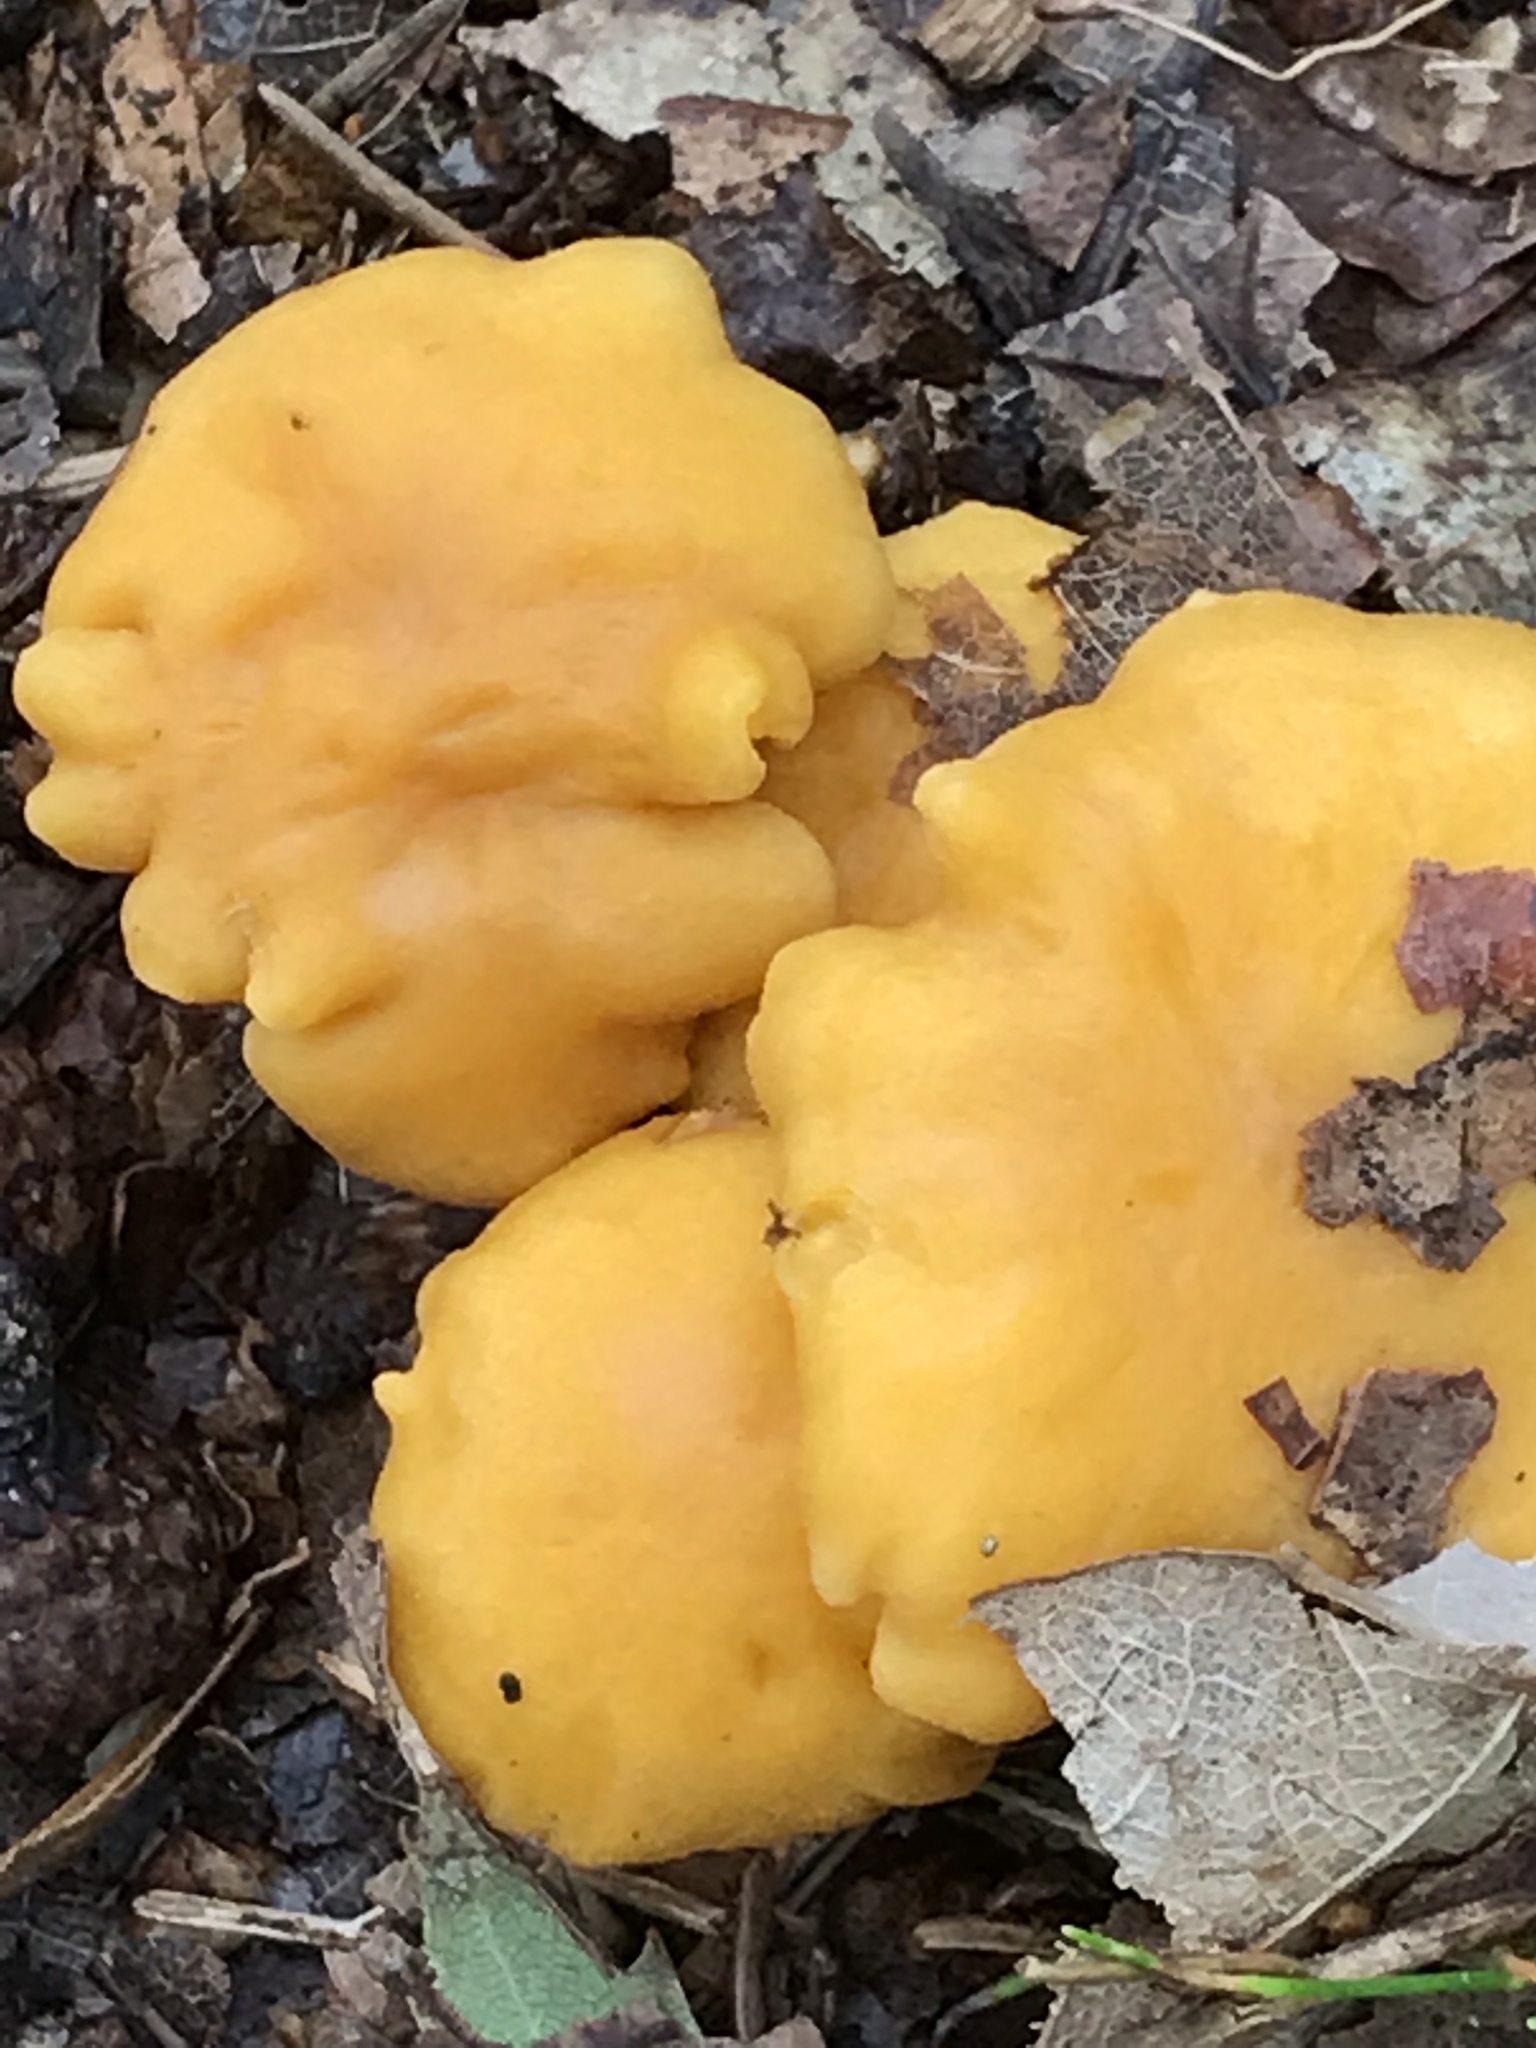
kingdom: Fungi
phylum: Basidiomycota
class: Agaricomycetes
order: Cantharellales
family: Hydnaceae
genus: Cantharellus
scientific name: Cantharellus cibarius
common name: Chanterelle
